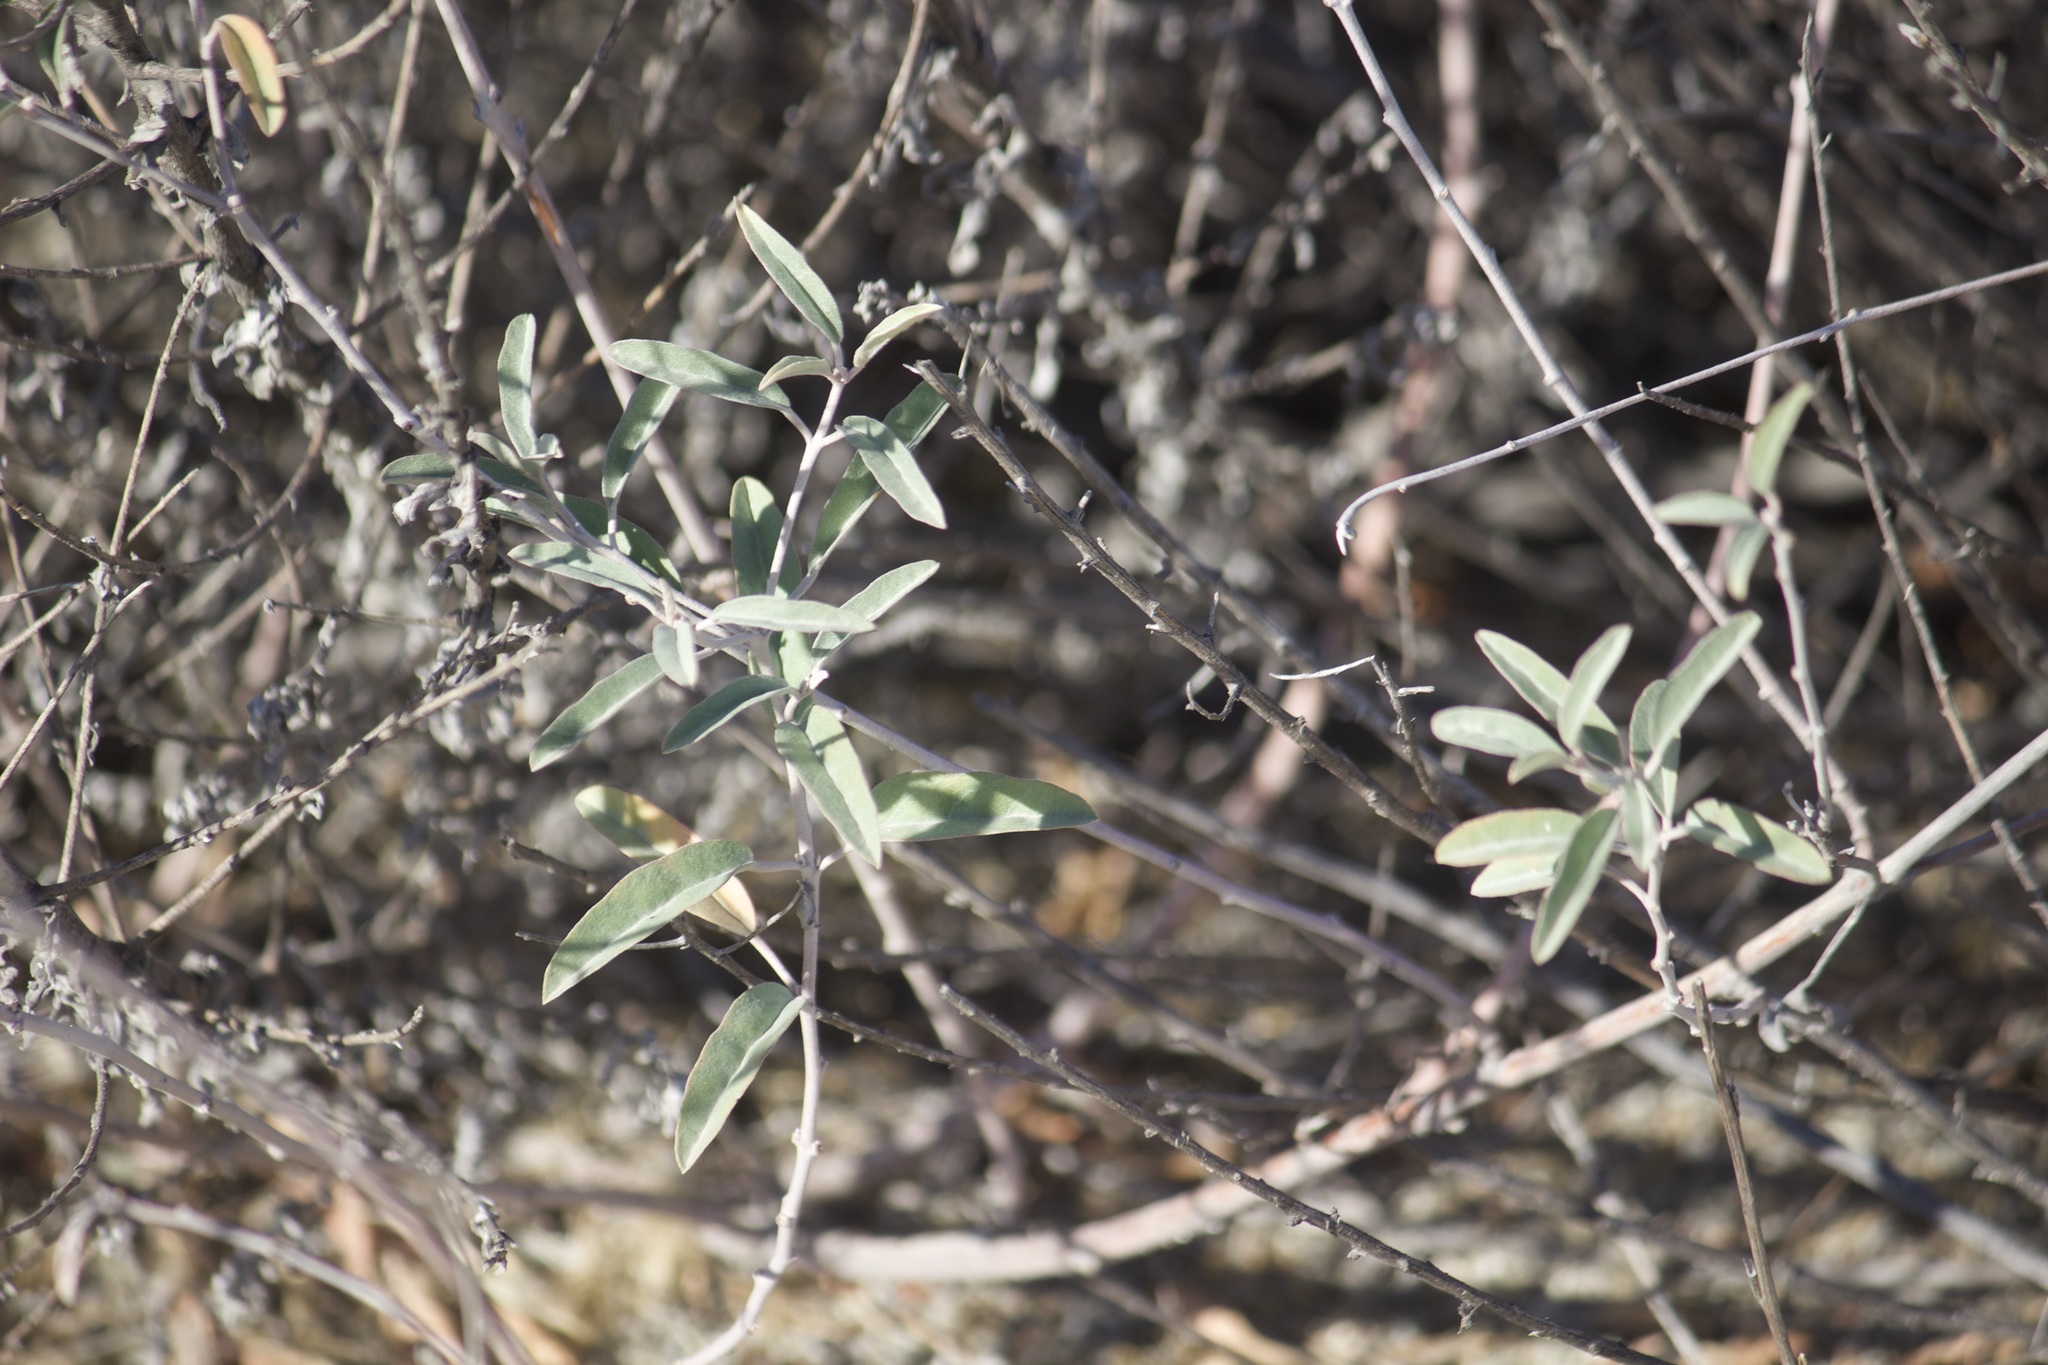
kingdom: Plantae
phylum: Tracheophyta
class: Magnoliopsida
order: Malpighiales
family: Euphorbiaceae
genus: Croton
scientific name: Croton californicus
